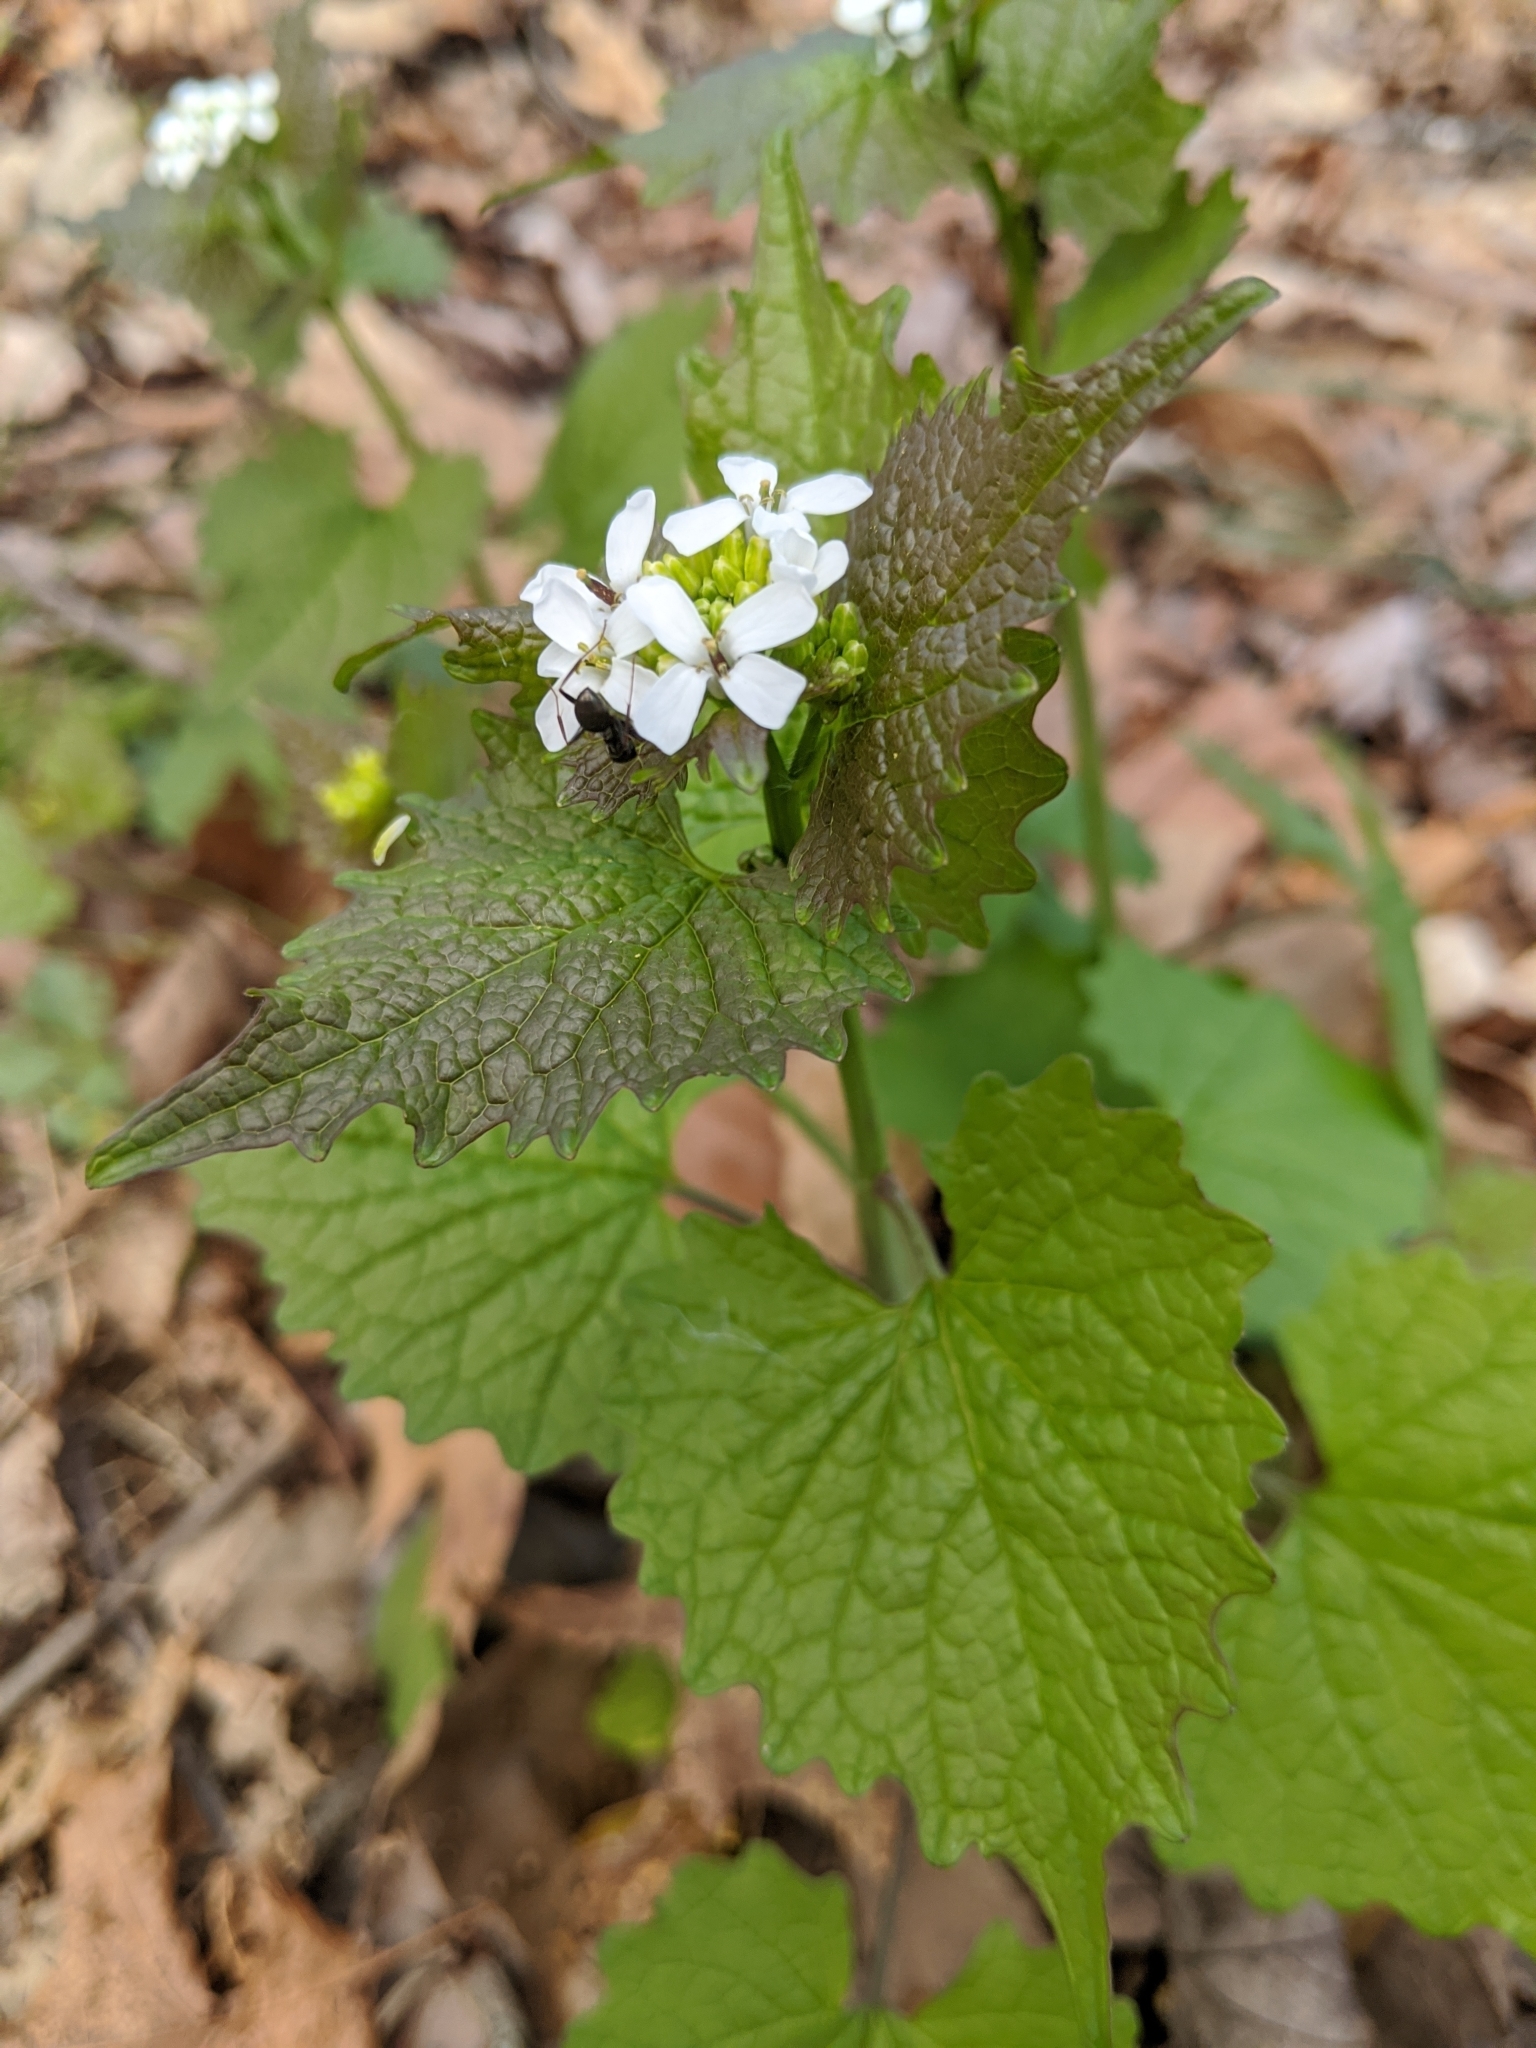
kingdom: Plantae
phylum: Tracheophyta
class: Magnoliopsida
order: Brassicales
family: Brassicaceae
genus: Alliaria
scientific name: Alliaria petiolata
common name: Garlic mustard
